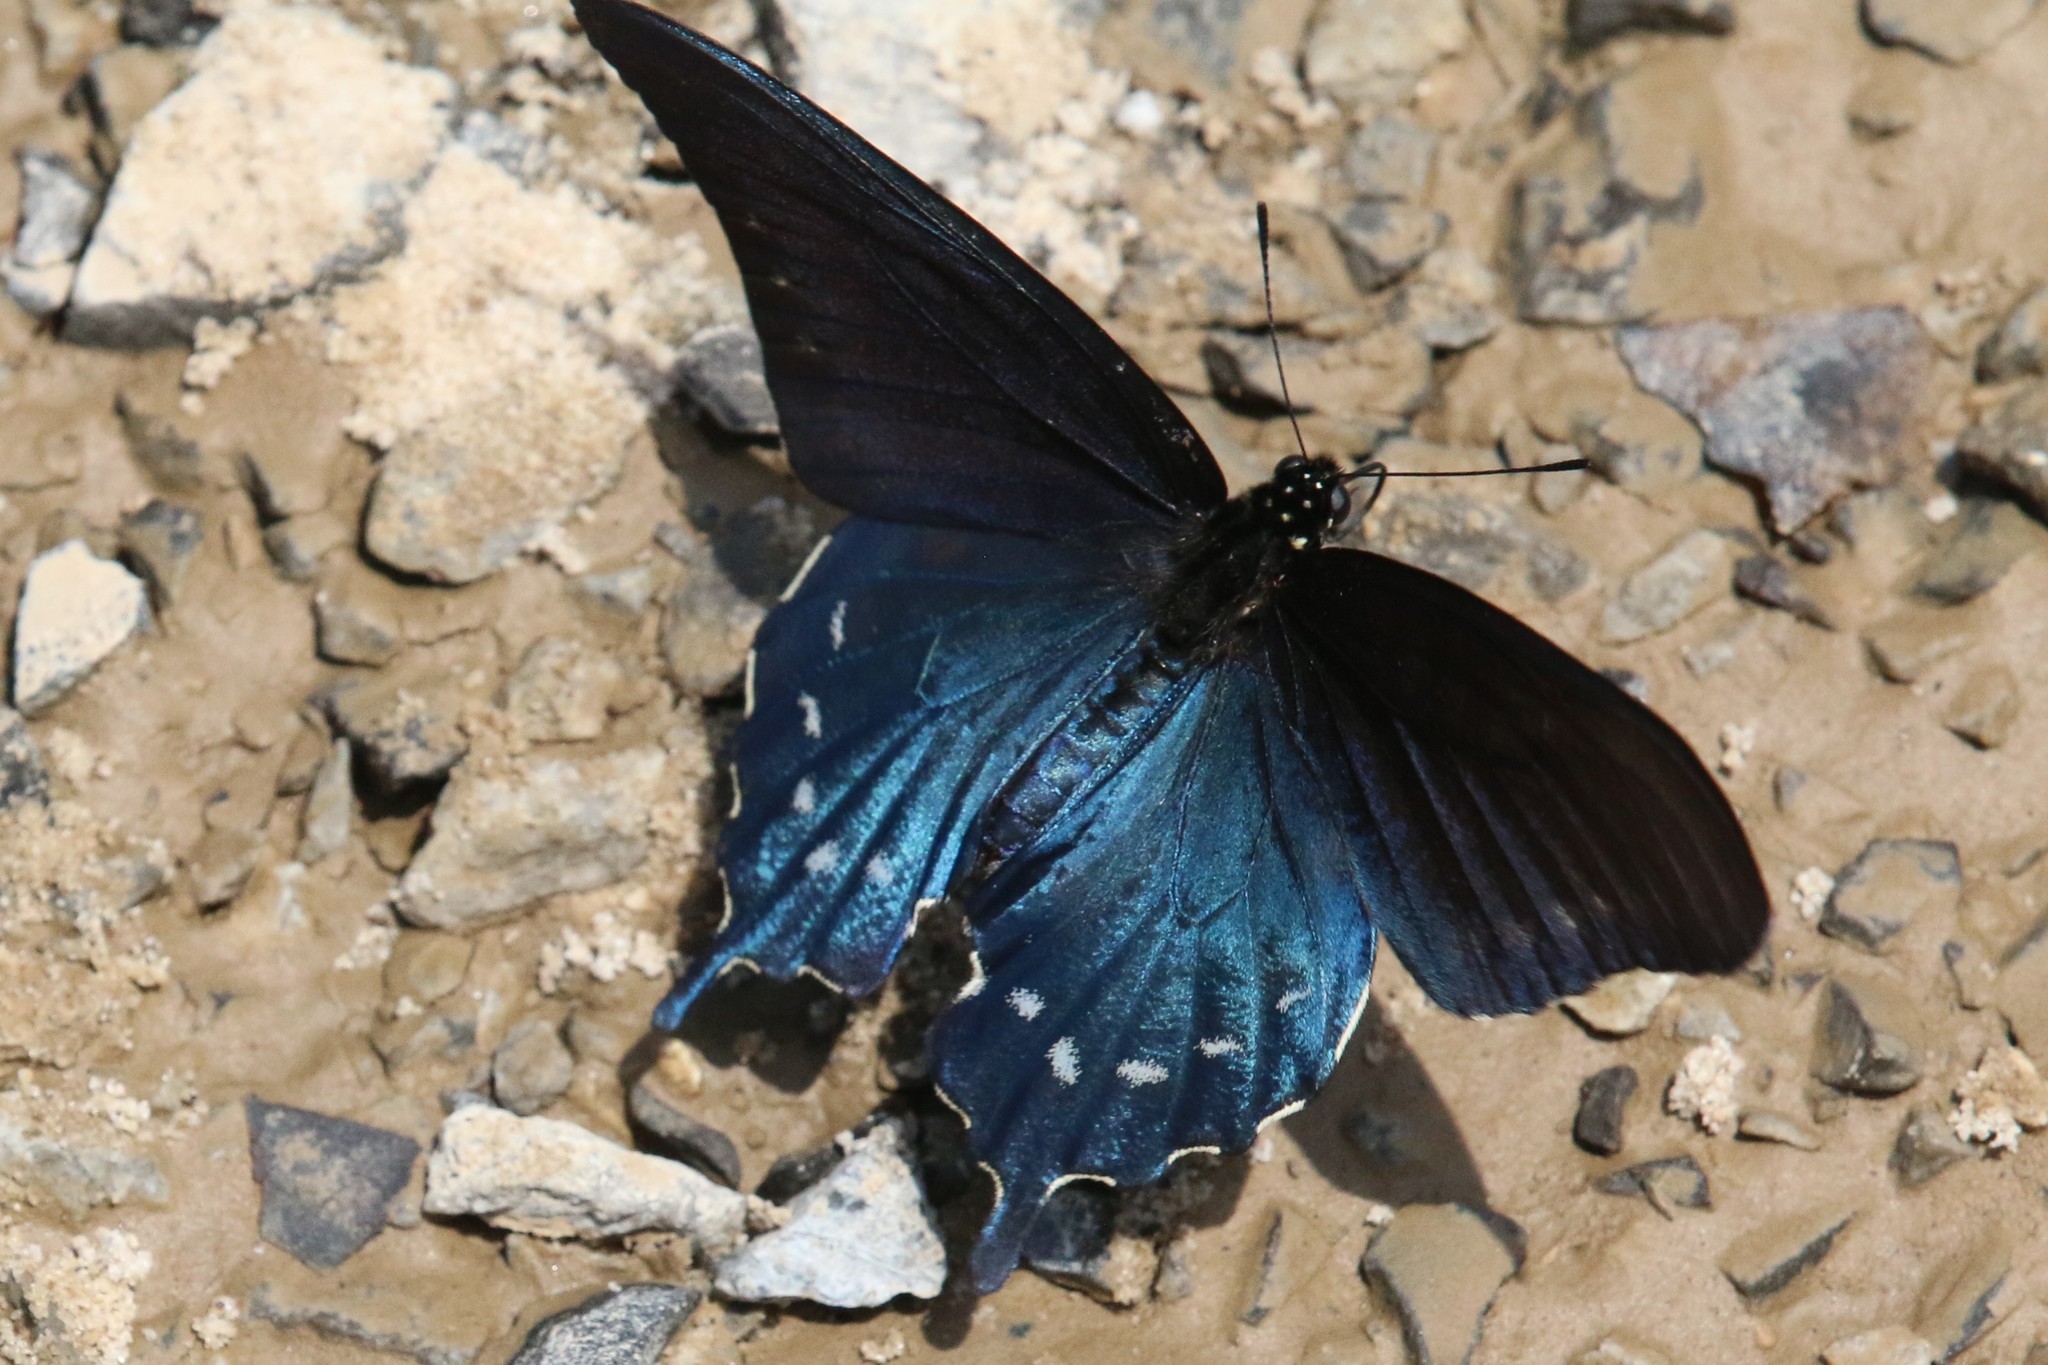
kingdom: Animalia
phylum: Arthropoda
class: Insecta
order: Lepidoptera
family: Papilionidae
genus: Battus
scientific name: Battus philenor
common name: Pipevine swallowtail
